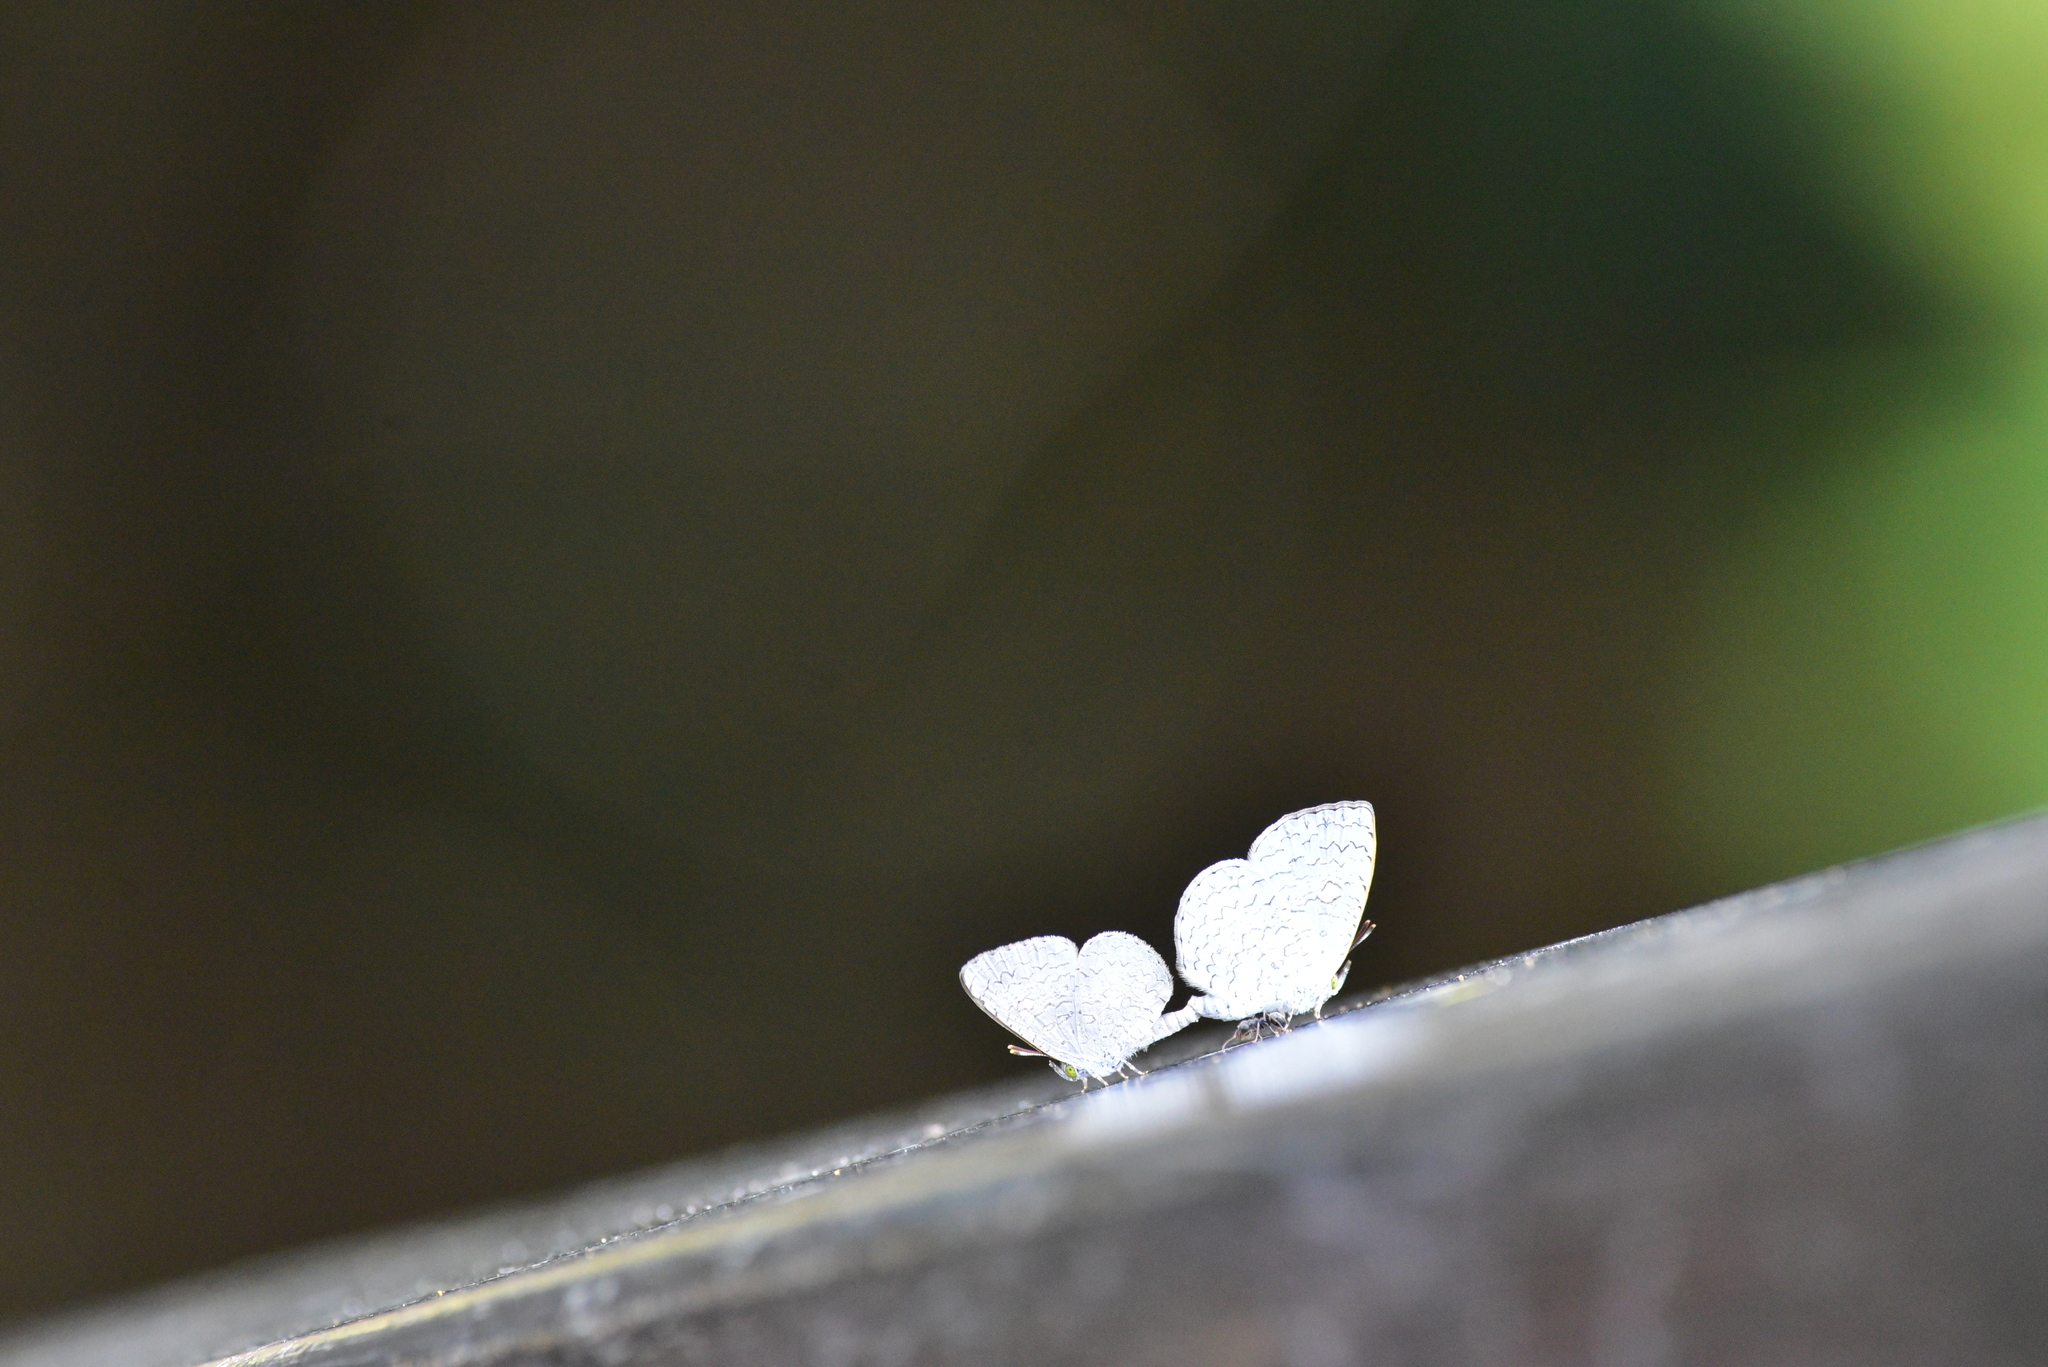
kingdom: Animalia
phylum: Arthropoda
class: Insecta
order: Lepidoptera
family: Lycaenidae
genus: Lucia
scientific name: Lucia dilama
